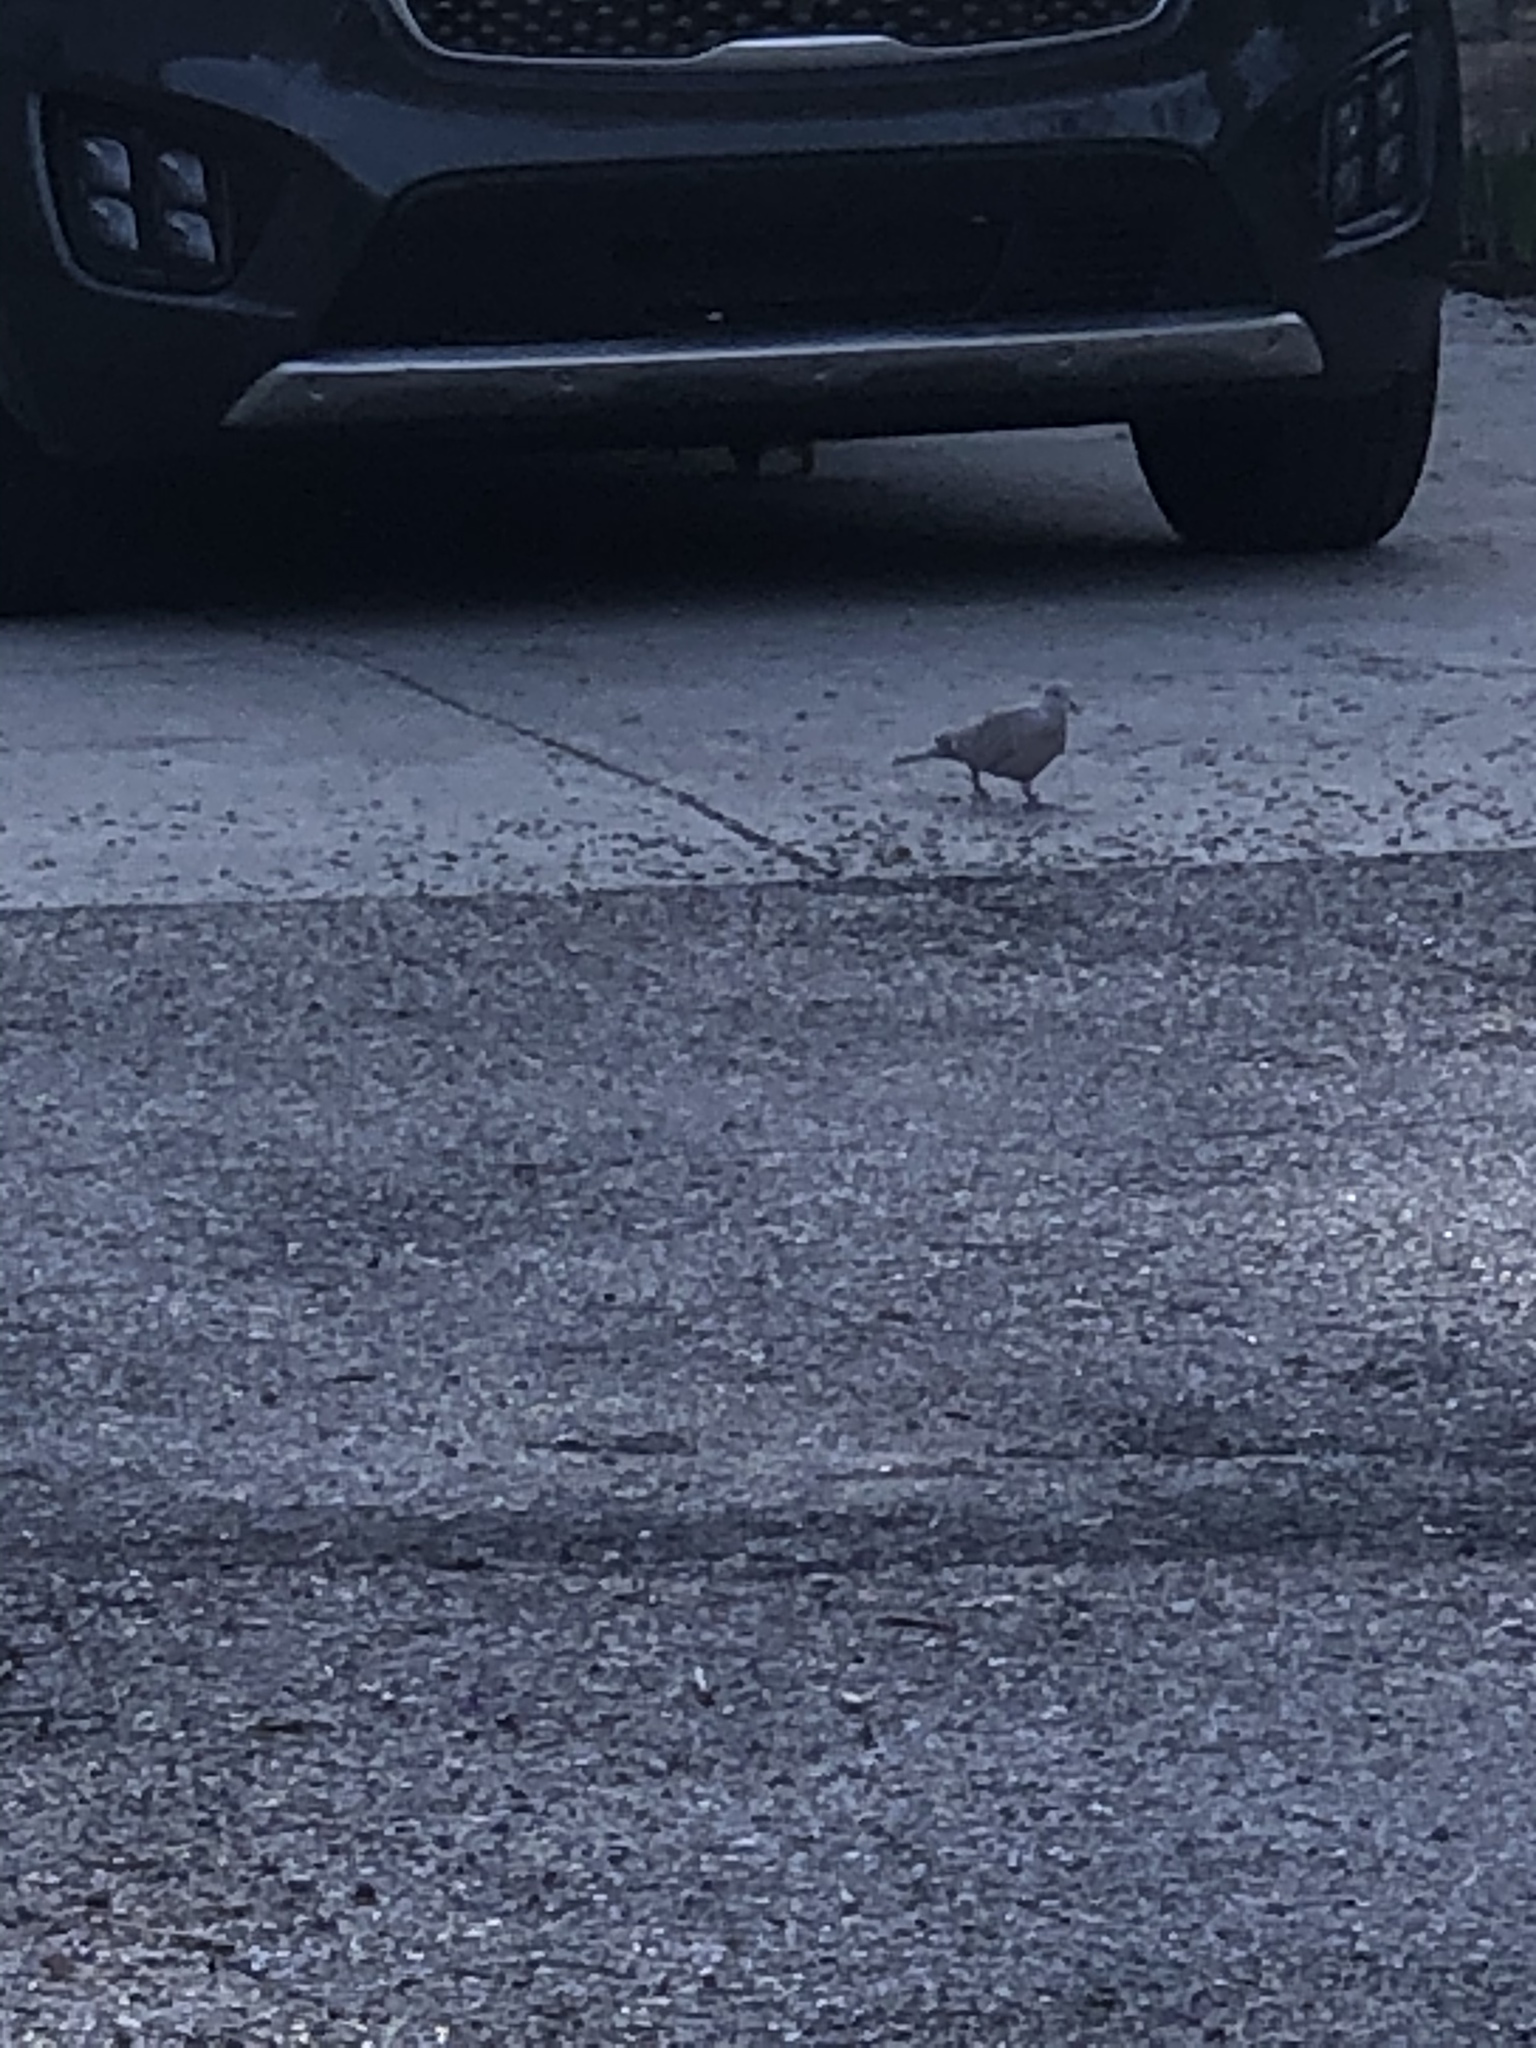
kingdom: Animalia
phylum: Chordata
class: Aves
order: Columbiformes
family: Columbidae
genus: Streptopelia
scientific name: Streptopelia decaocto
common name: Eurasian collared dove
